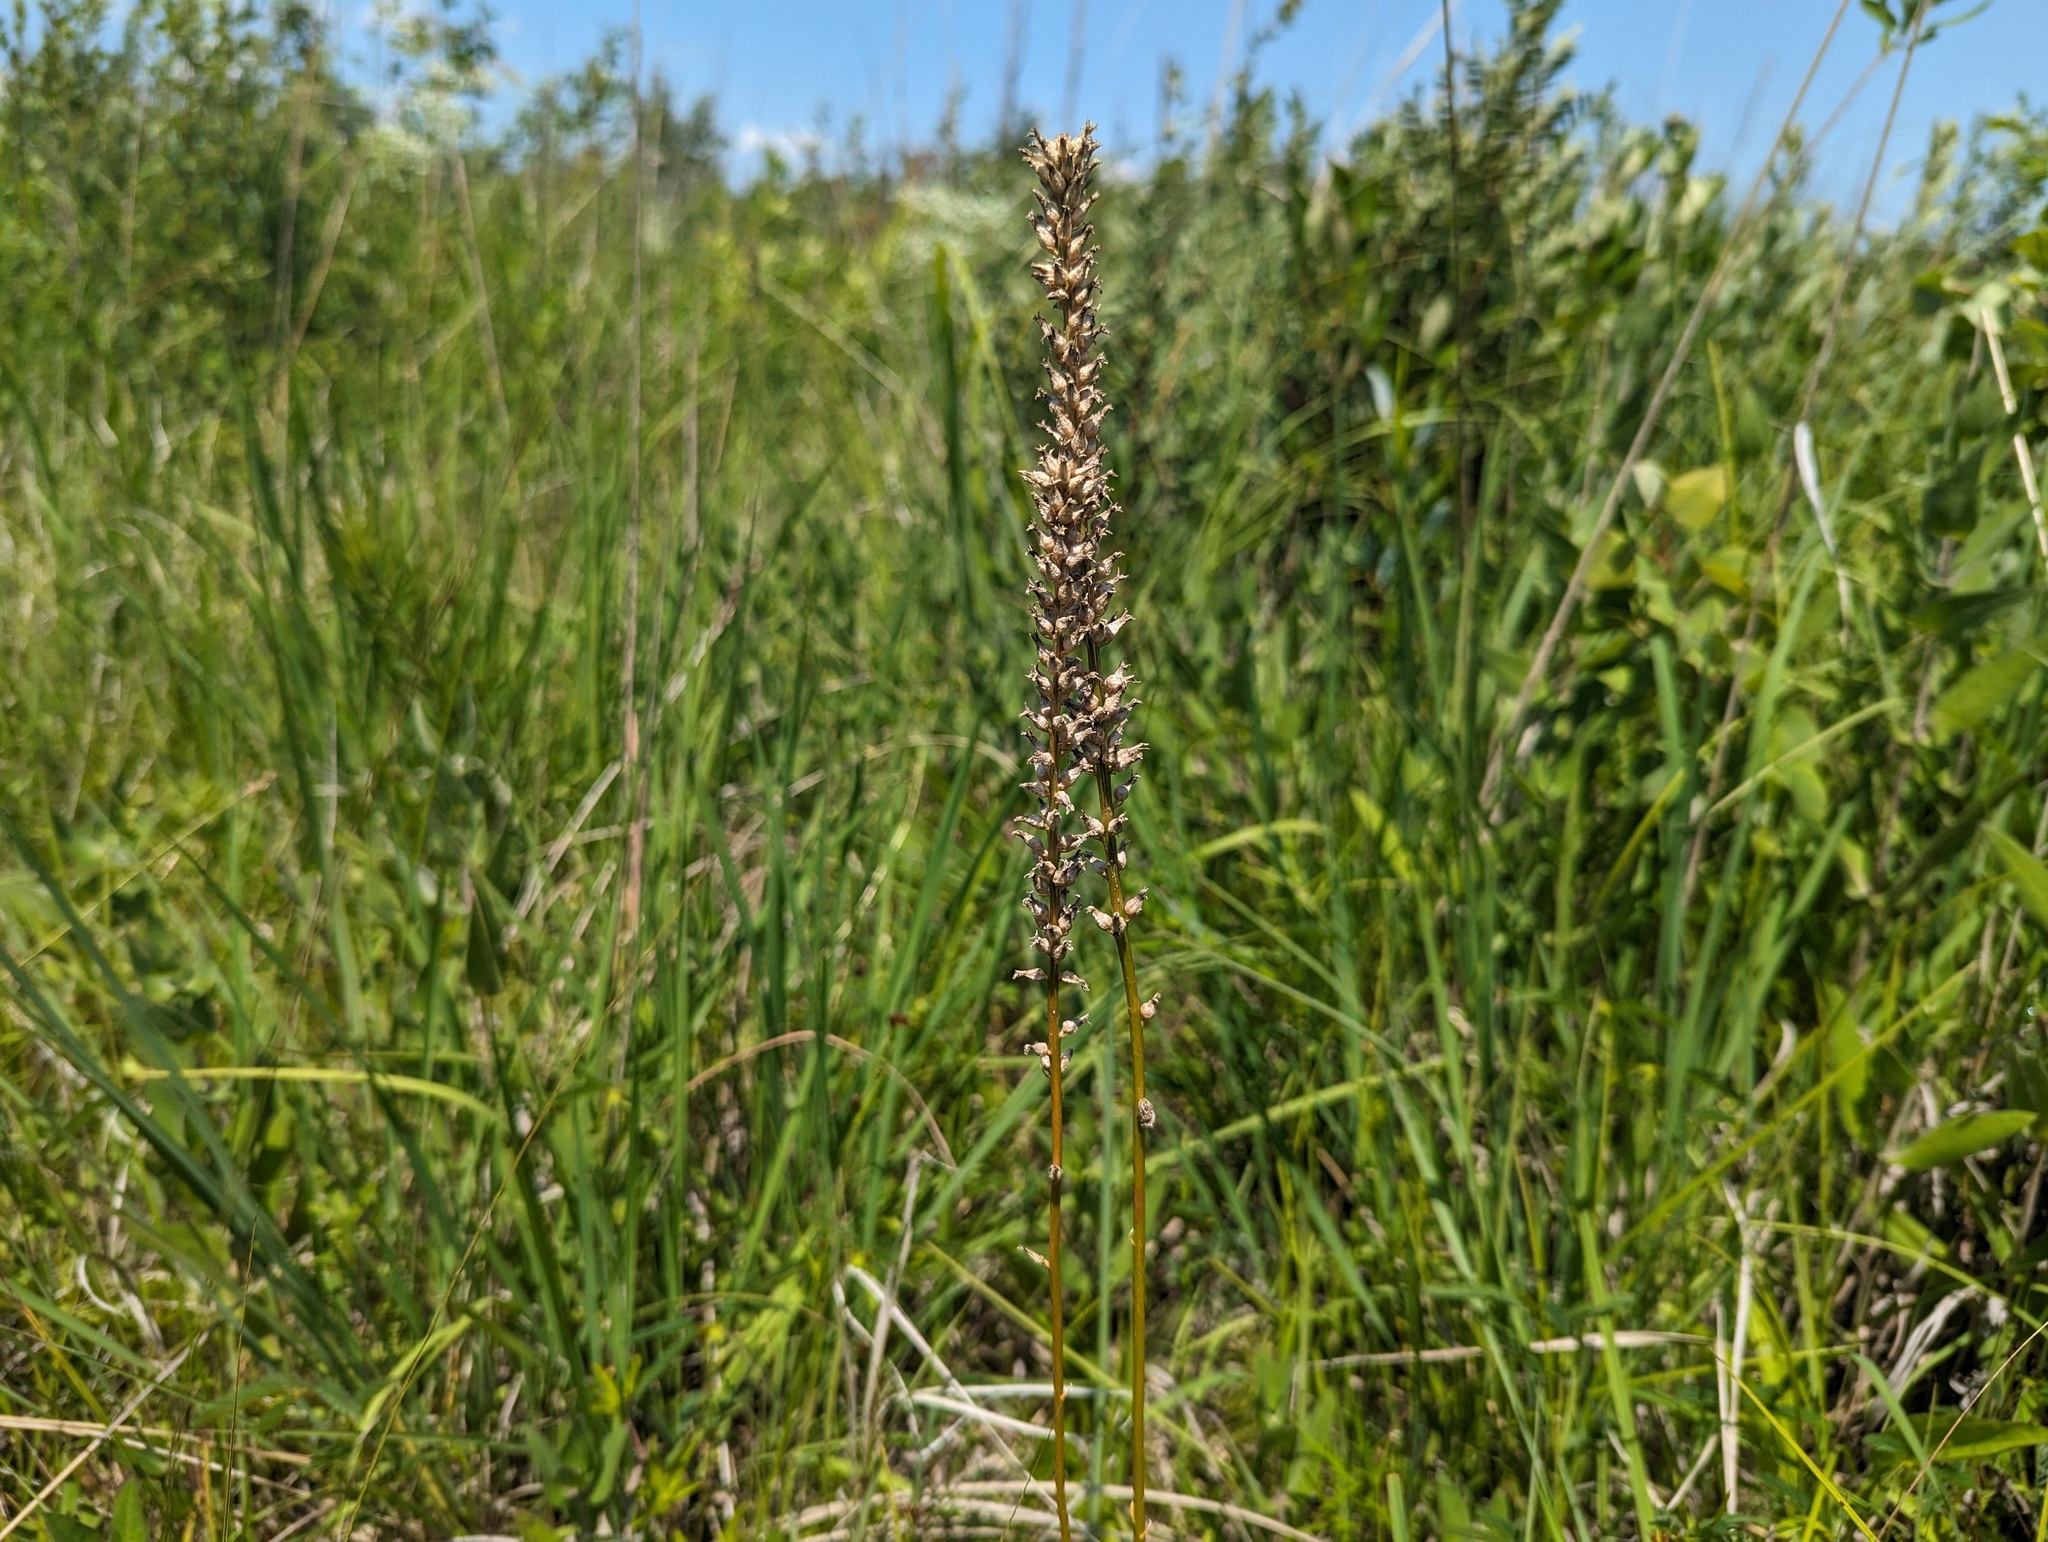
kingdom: Plantae
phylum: Tracheophyta
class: Liliopsida
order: Dioscoreales
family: Nartheciaceae
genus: Aletris
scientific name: Aletris farinosa
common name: Colicroot
